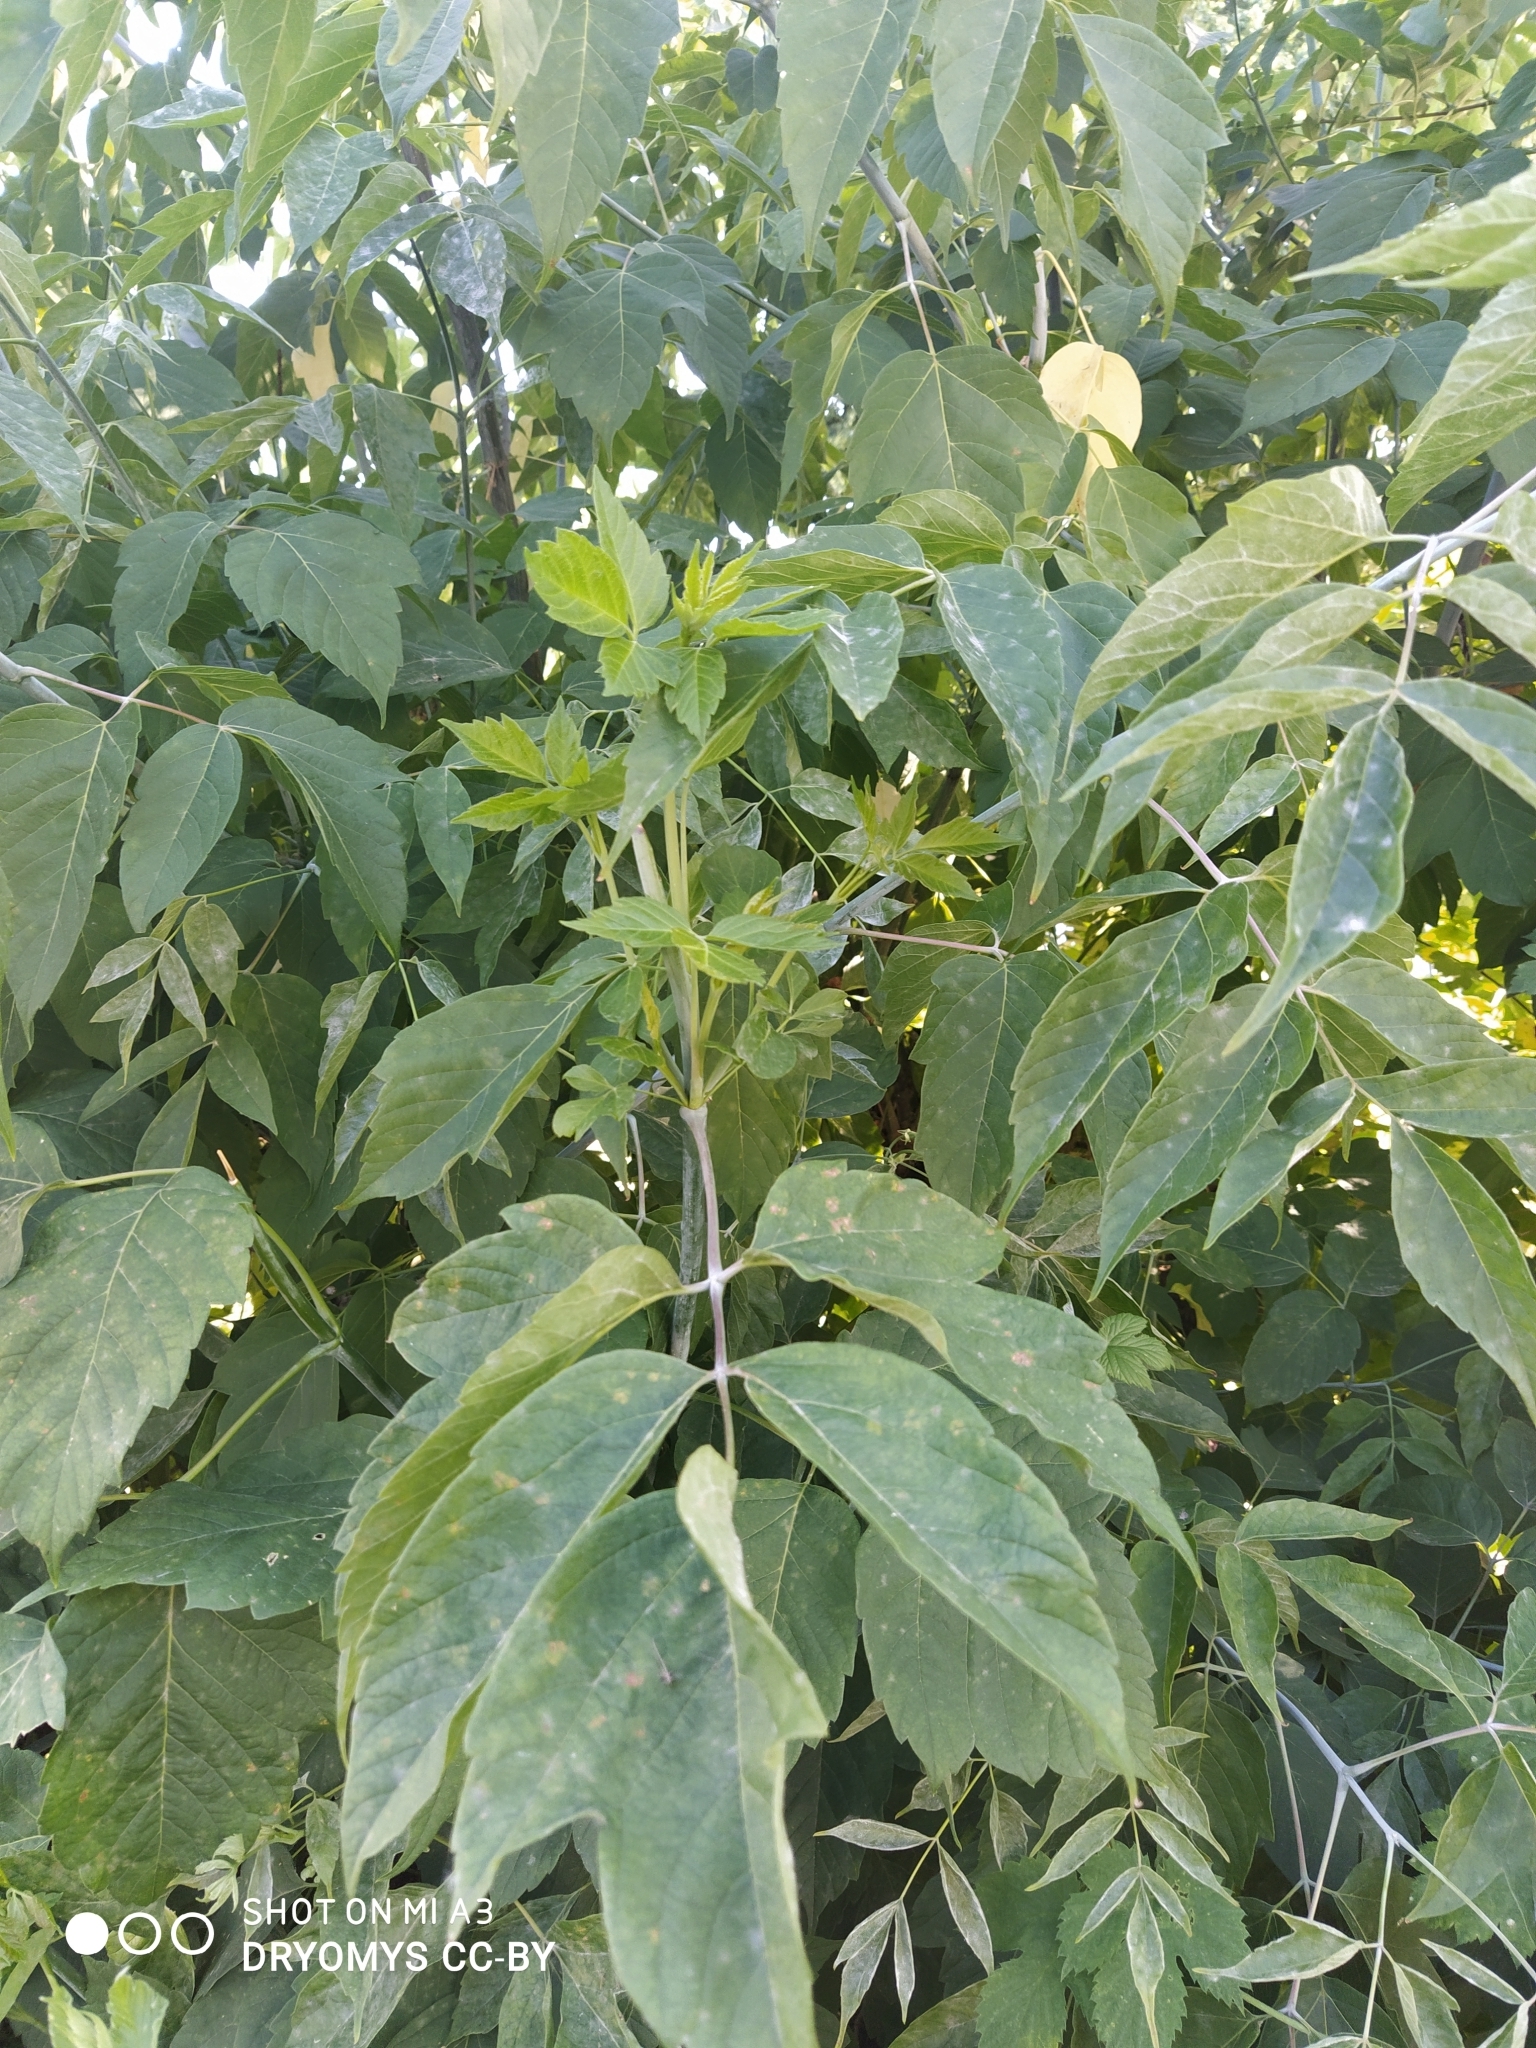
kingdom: Plantae
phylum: Tracheophyta
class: Magnoliopsida
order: Sapindales
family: Sapindaceae
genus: Acer
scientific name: Acer negundo
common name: Ashleaf maple
